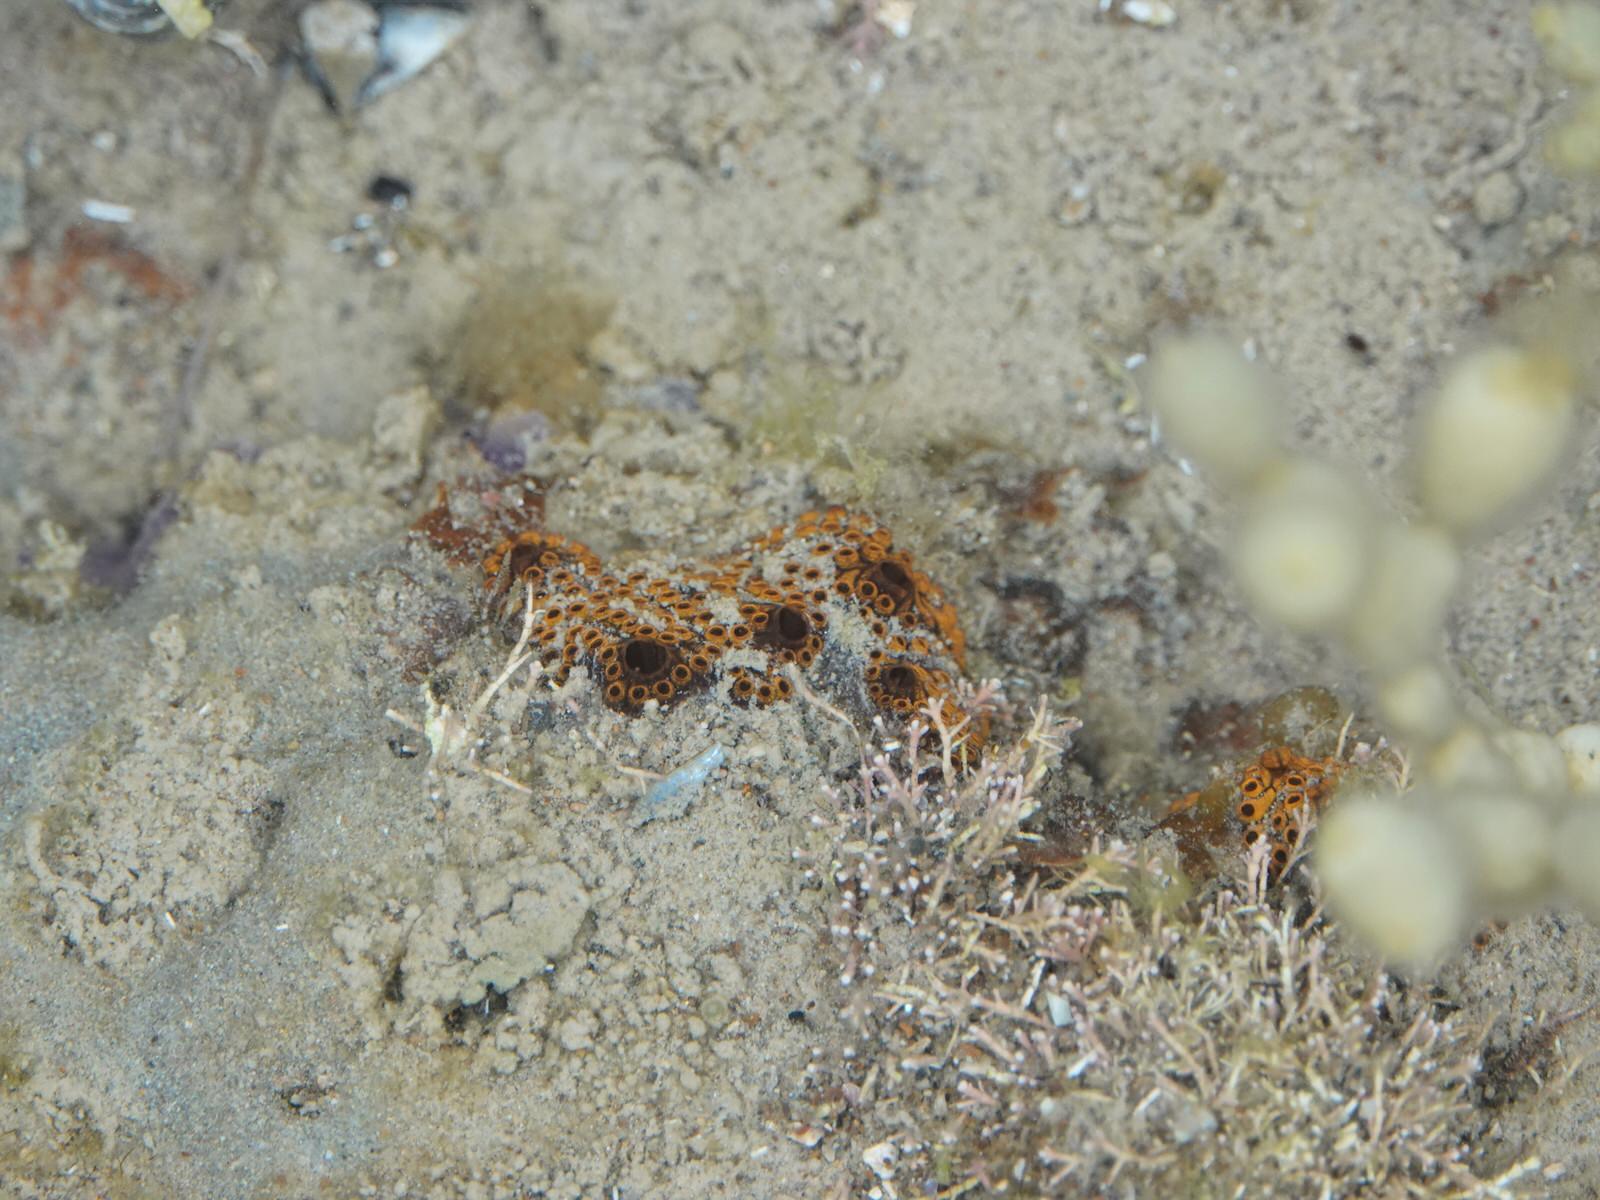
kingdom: Animalia
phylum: Chordata
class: Ascidiacea
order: Stolidobranchia
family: Styelidae
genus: Botrylloides
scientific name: Botrylloides leachii
